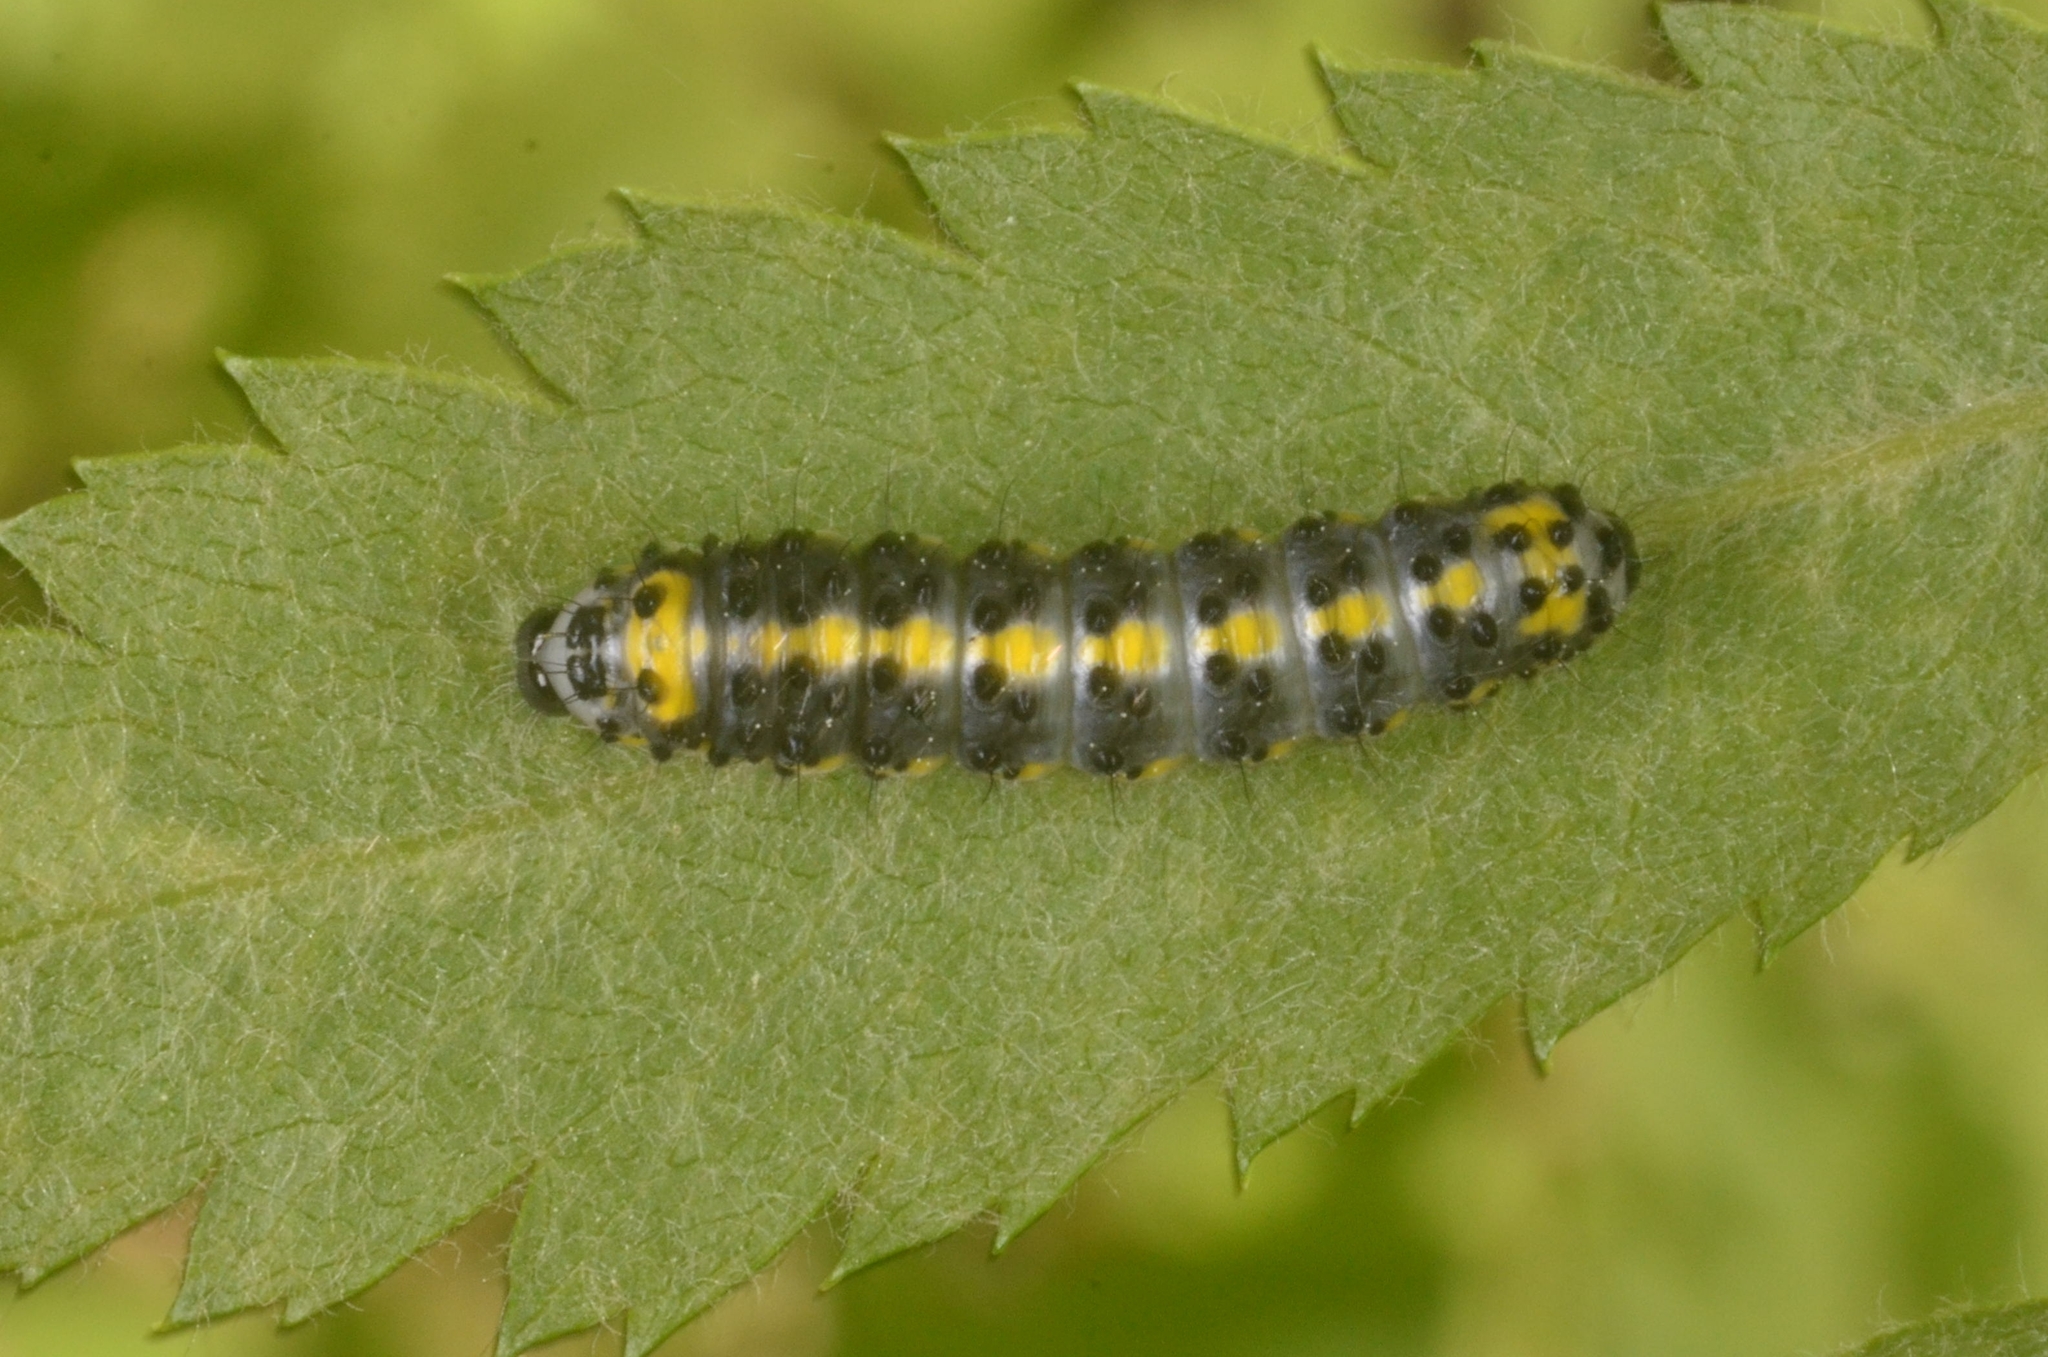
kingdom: Animalia
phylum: Arthropoda
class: Insecta
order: Lepidoptera
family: Noctuidae
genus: Diloba
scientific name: Diloba caeruleocephala
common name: Figure of eight
